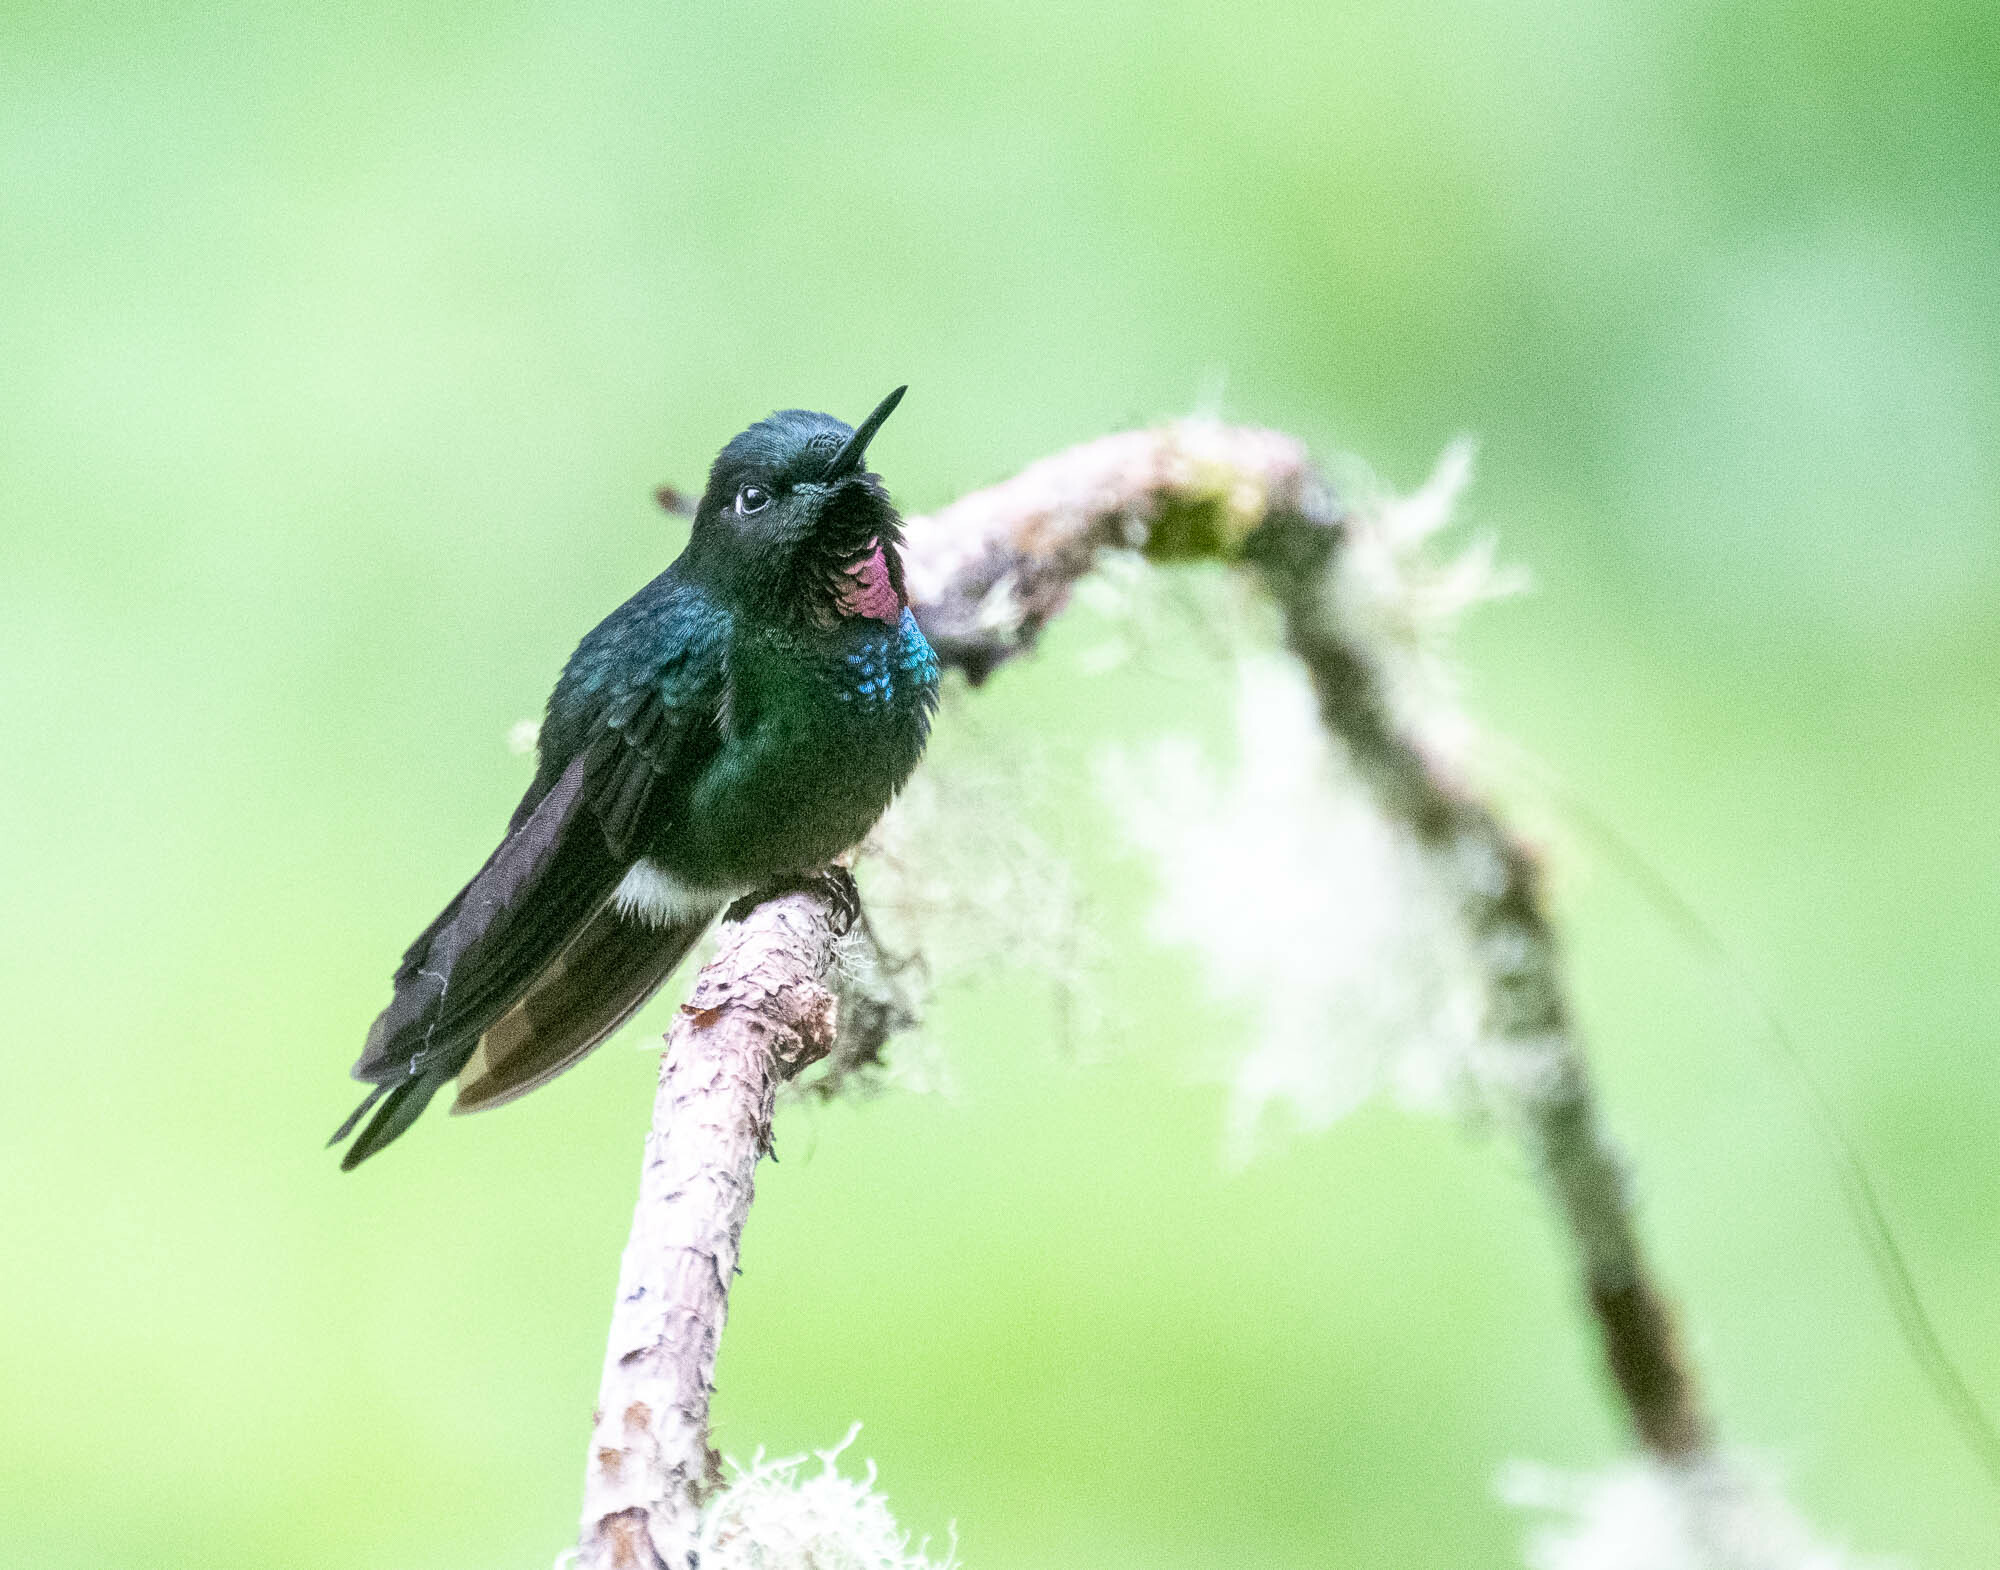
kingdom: Animalia
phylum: Chordata
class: Aves
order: Apodiformes
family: Trochilidae
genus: Heliangelus
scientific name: Heliangelus exortis
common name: Tourmaline sunangel
